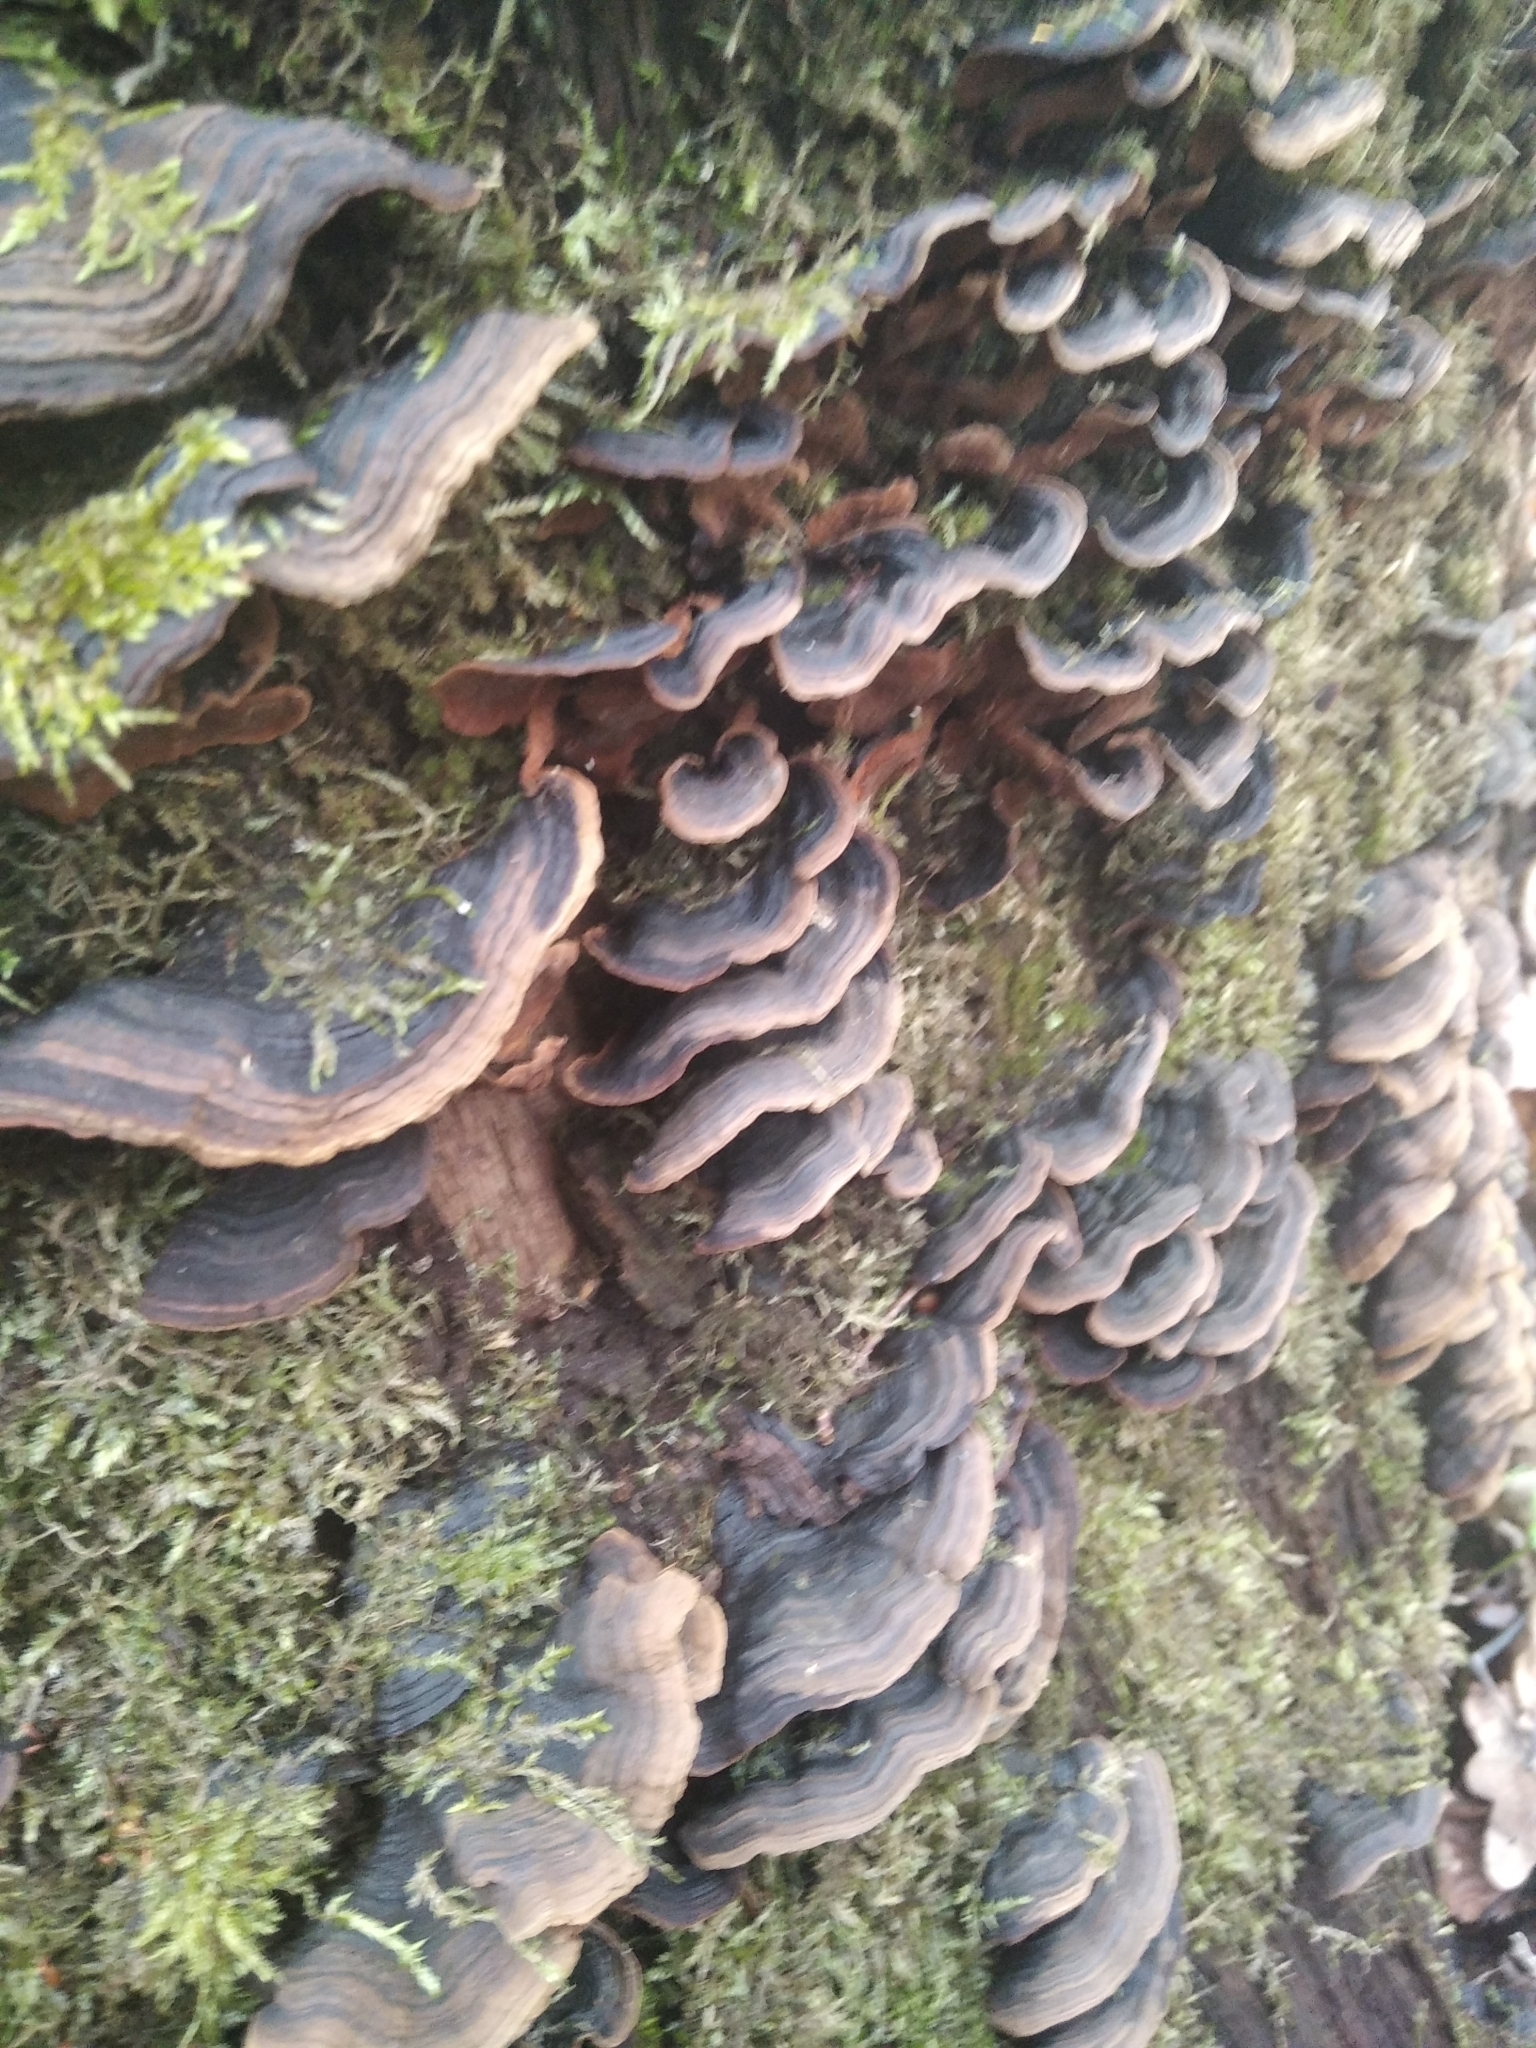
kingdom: Fungi
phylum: Basidiomycota
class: Agaricomycetes
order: Hymenochaetales
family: Hymenochaetaceae
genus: Hymenochaete
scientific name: Hymenochaete rubiginosa
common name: Oak curtain crust
